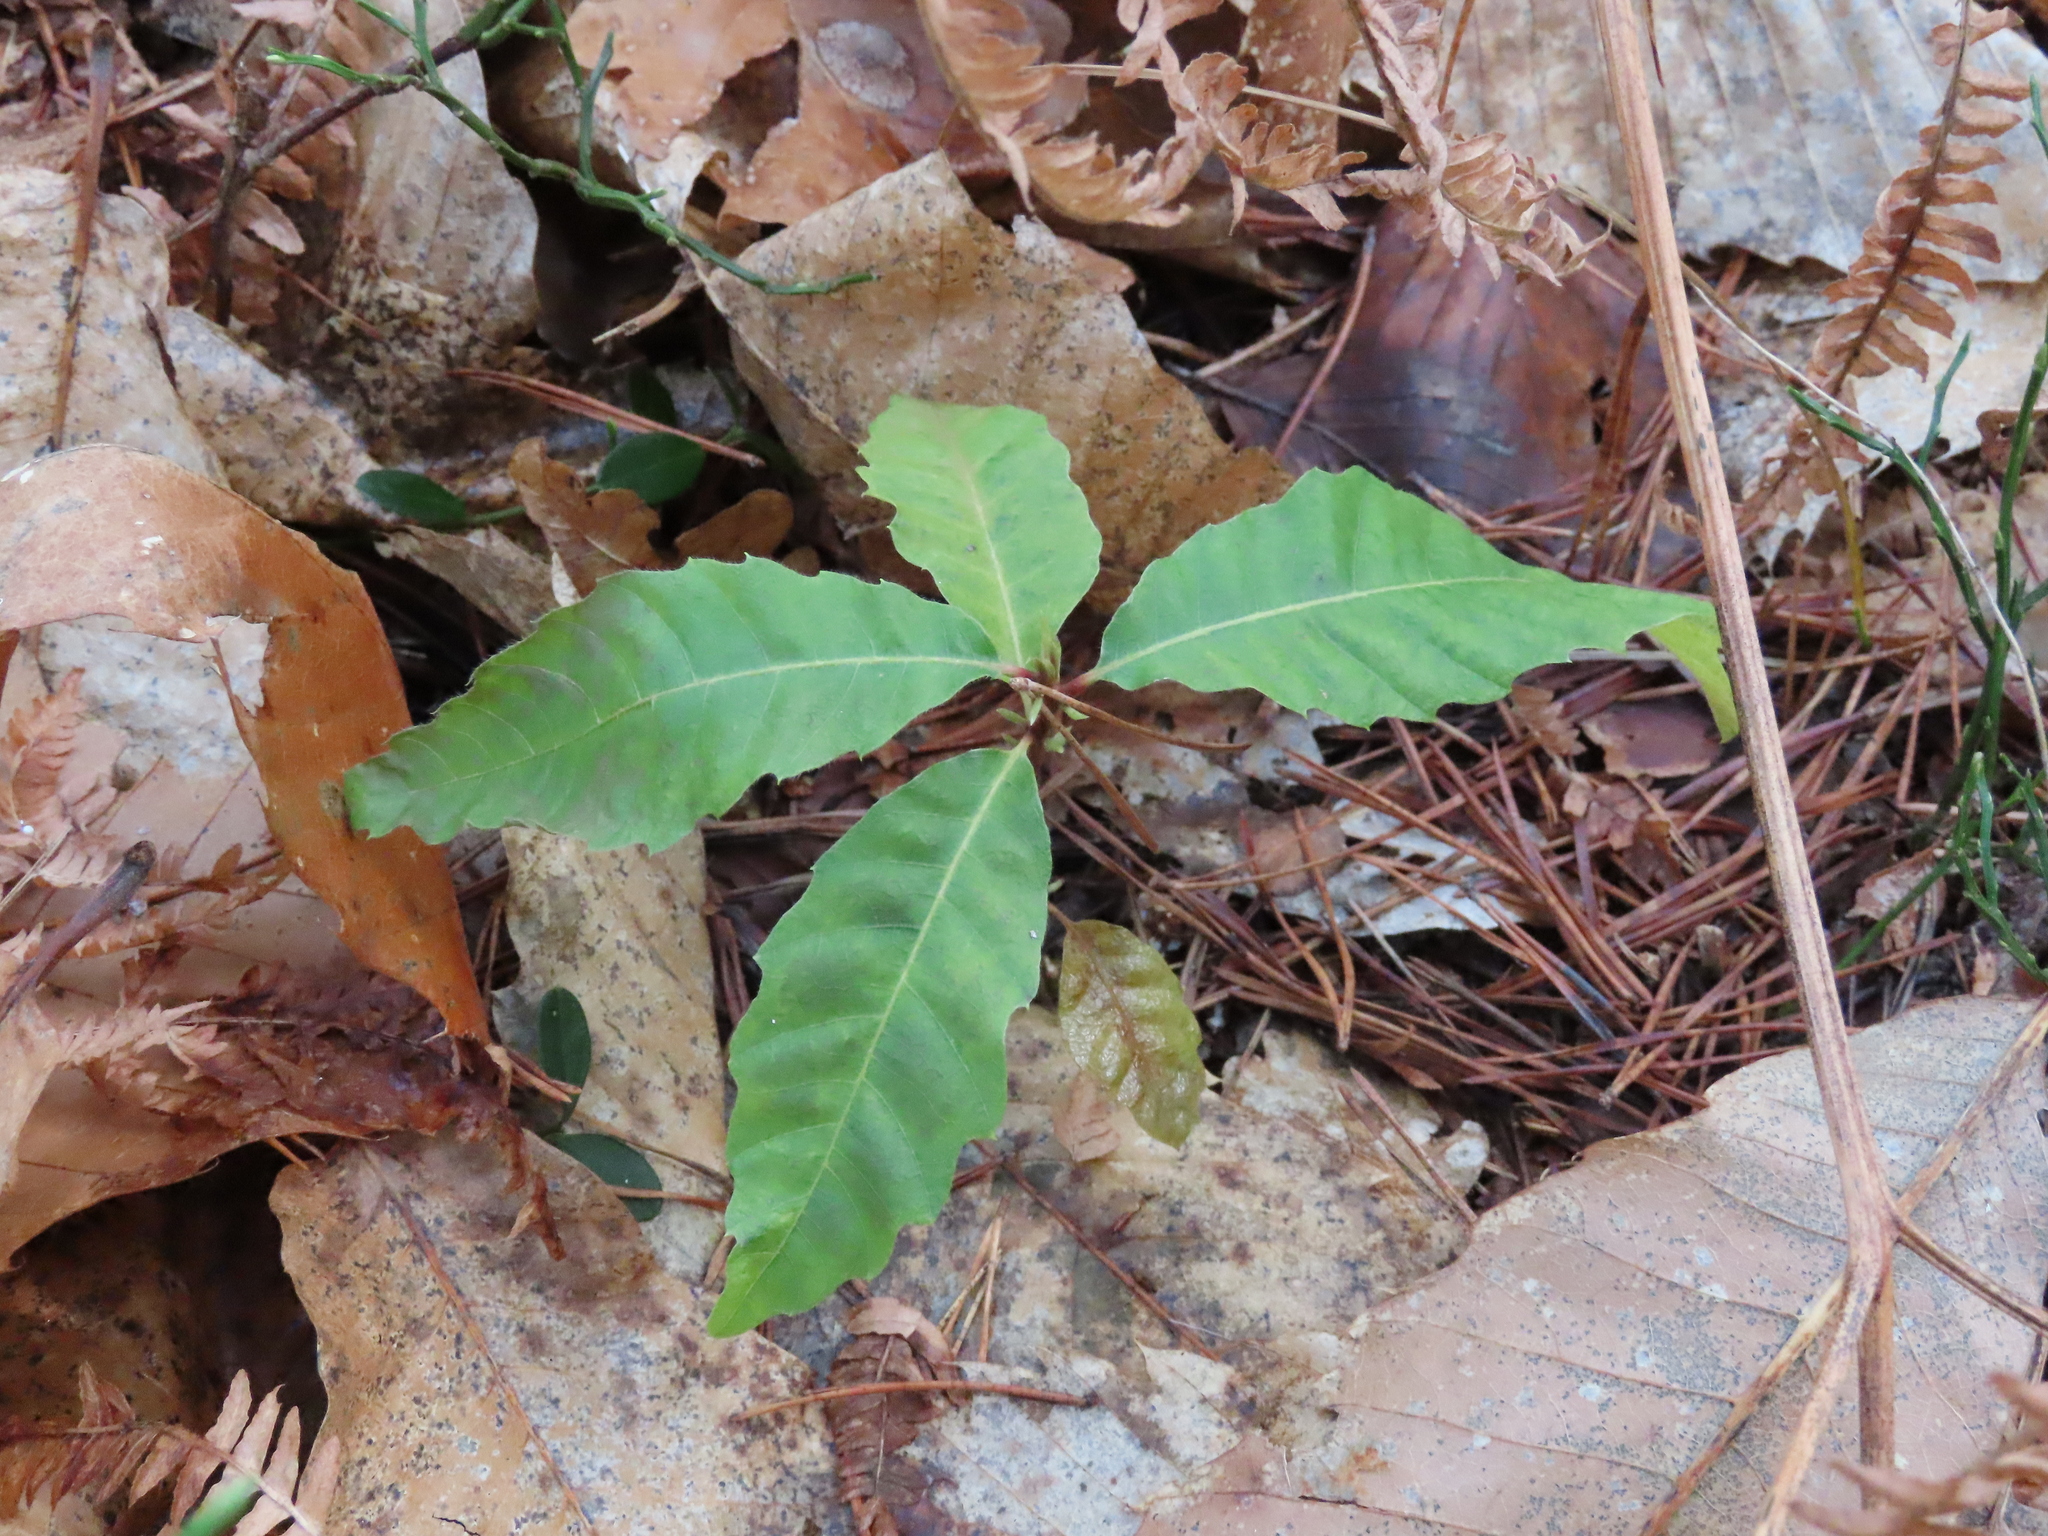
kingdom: Plantae
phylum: Tracheophyta
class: Magnoliopsida
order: Fagales
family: Fagaceae
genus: Castanea
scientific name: Castanea sativa
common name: Sweet chestnut
